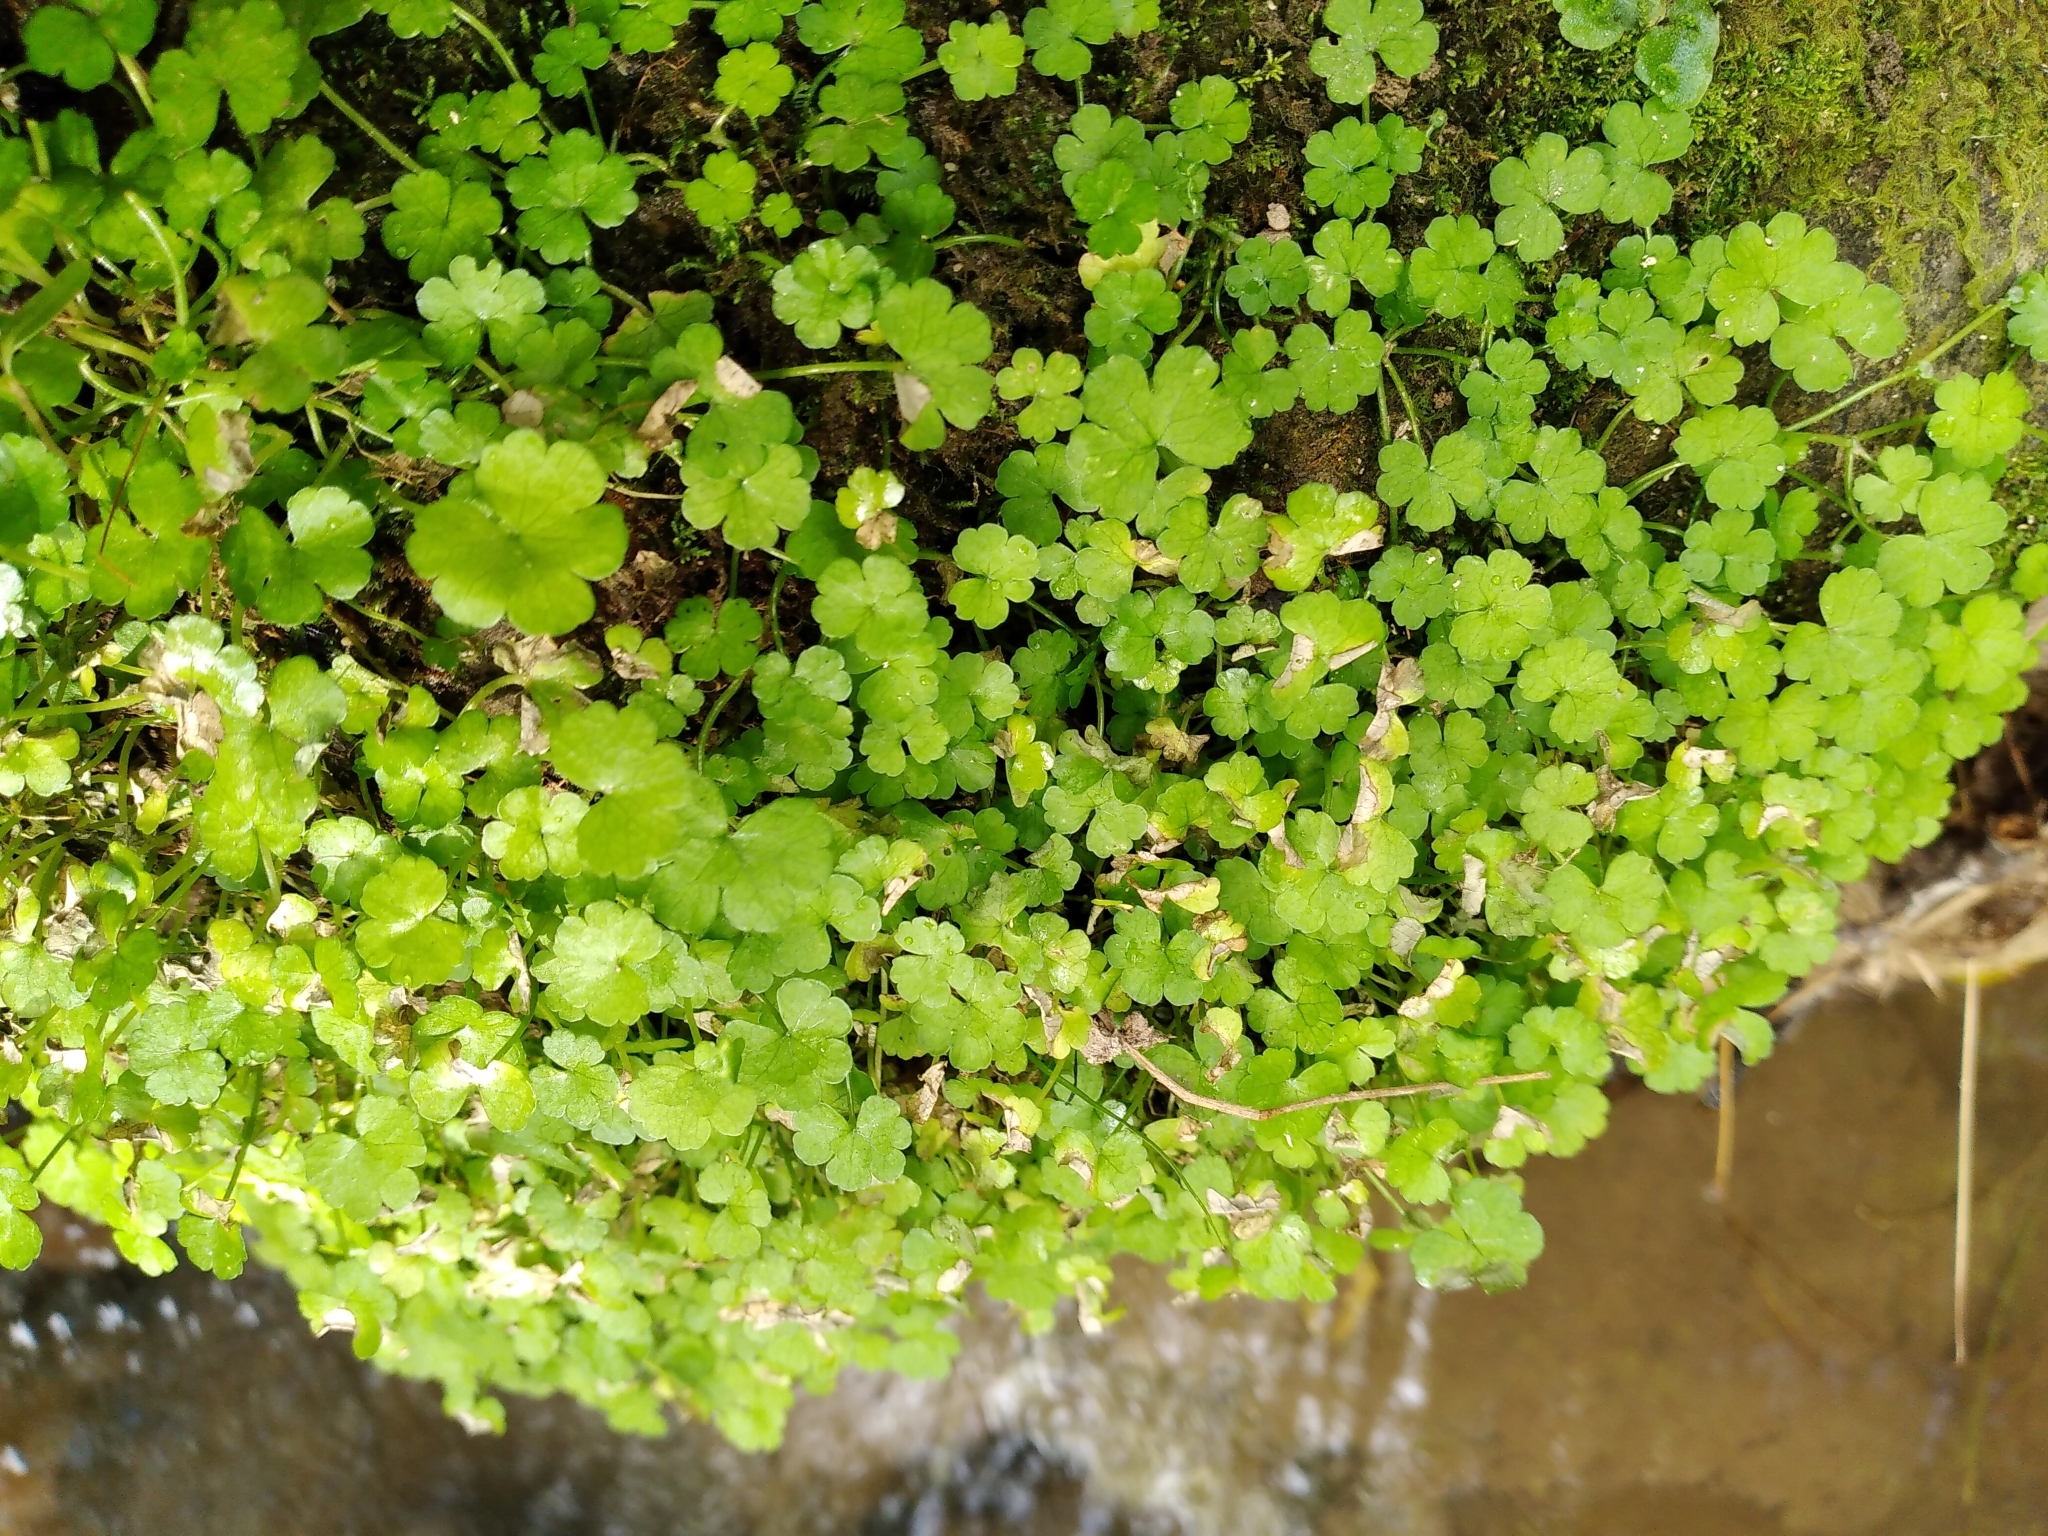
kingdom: Plantae
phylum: Tracheophyta
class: Magnoliopsida
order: Apiales
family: Araliaceae
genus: Hydrocotyle
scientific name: Hydrocotyle heteromeria
